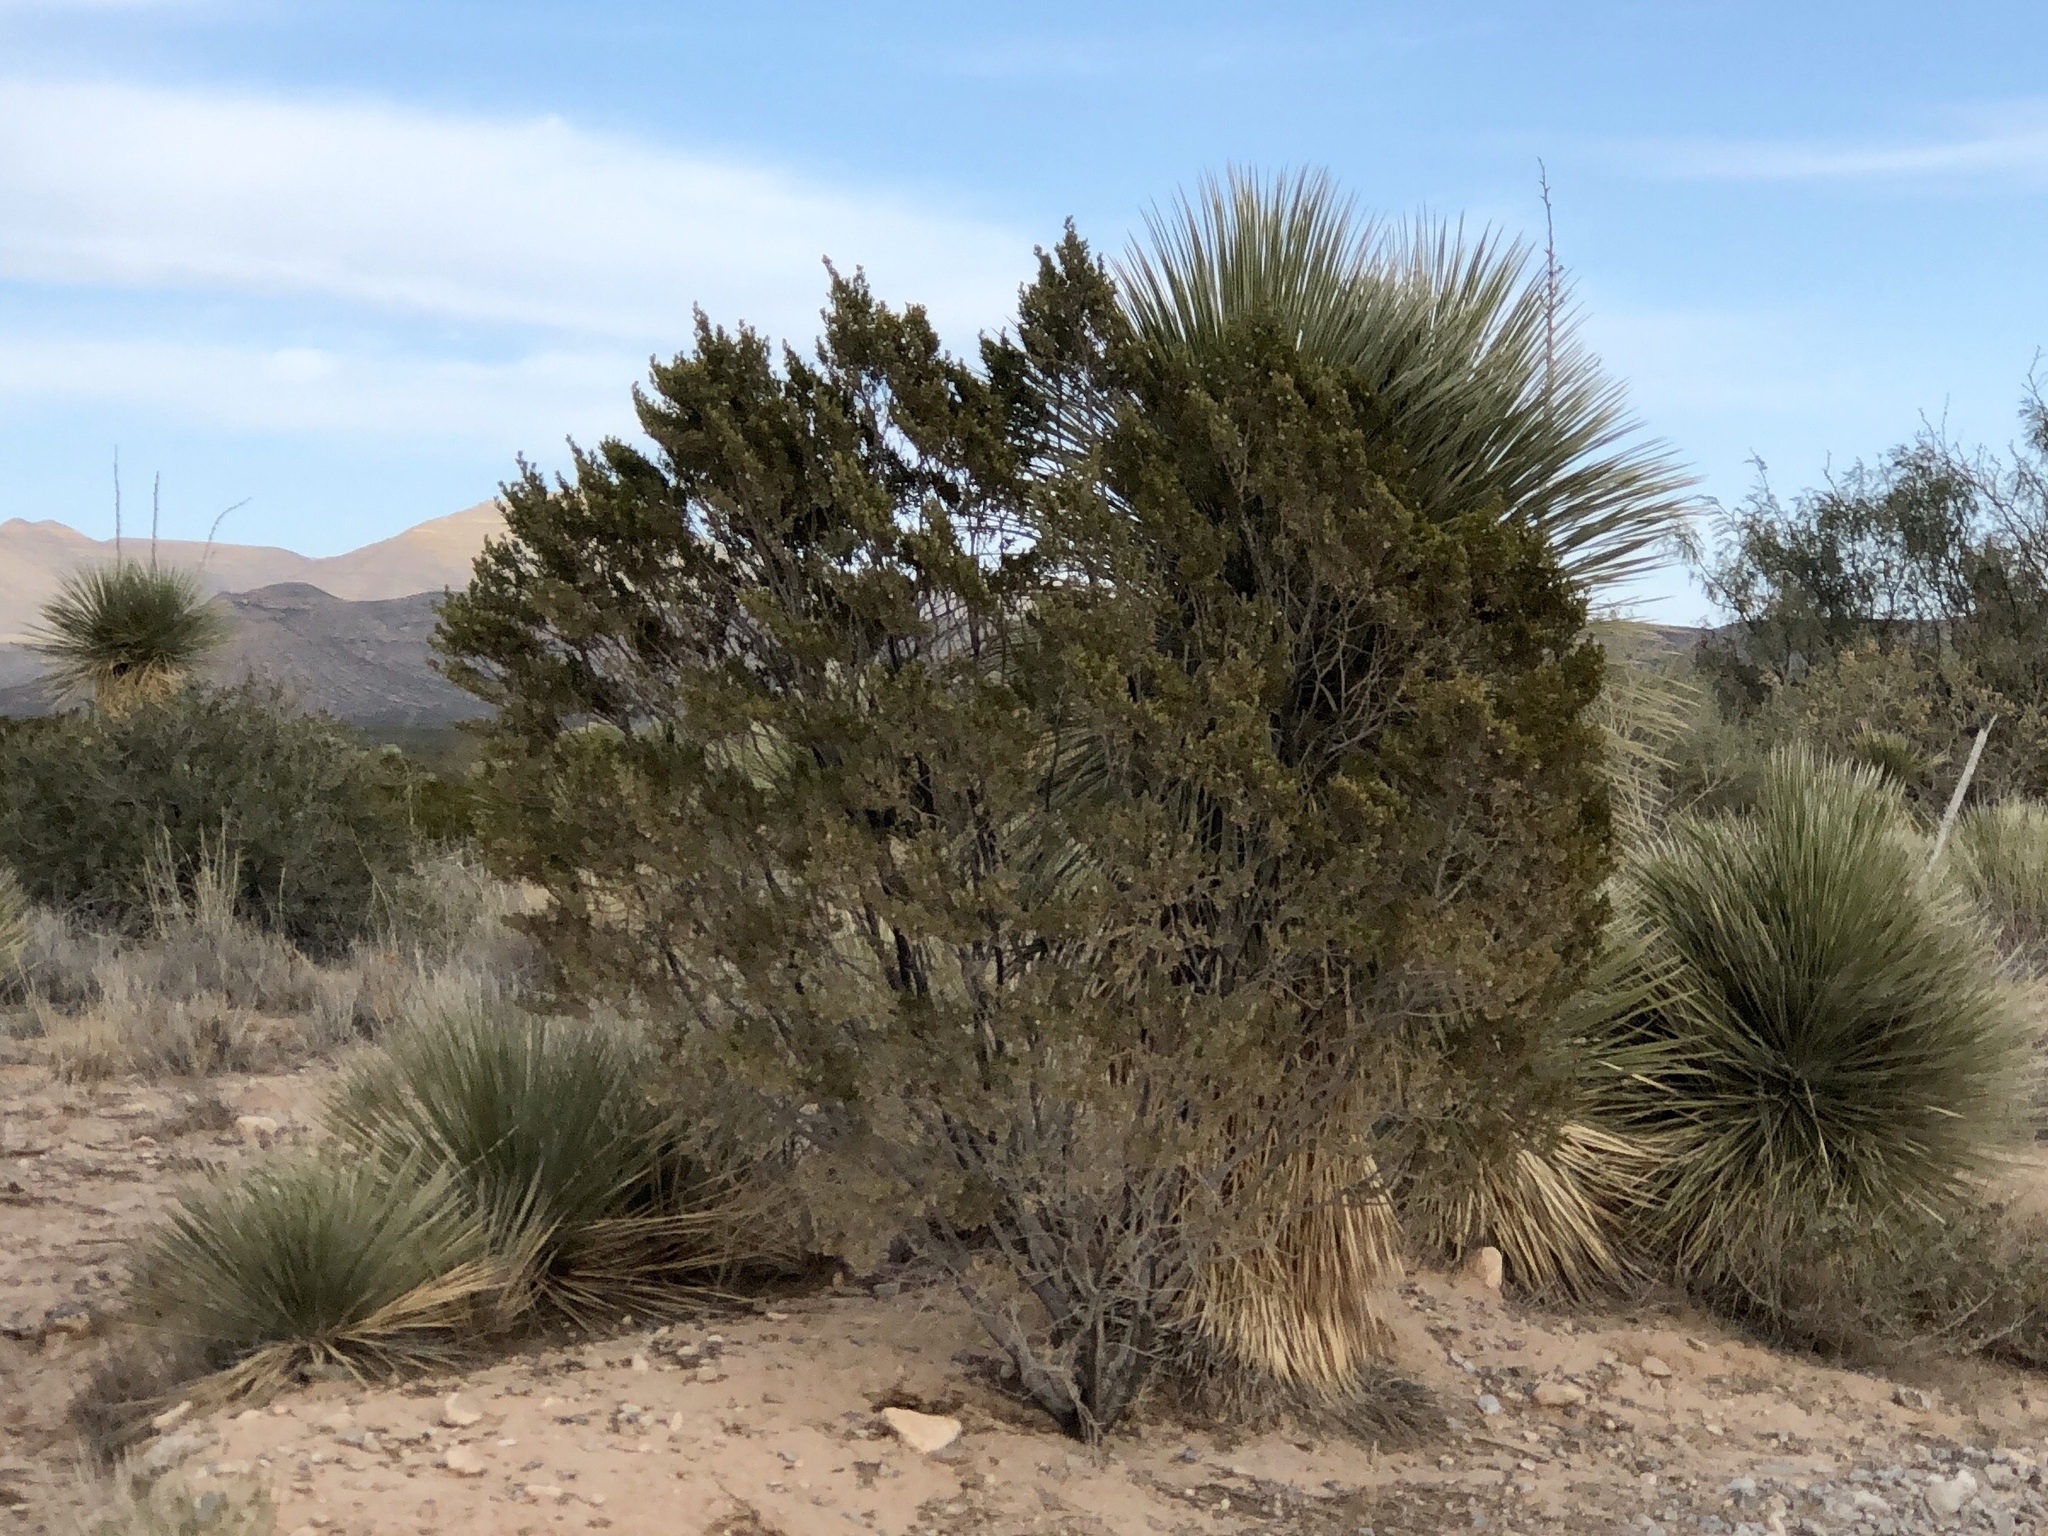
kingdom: Plantae
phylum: Tracheophyta
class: Magnoliopsida
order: Zygophyllales
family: Zygophyllaceae
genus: Larrea
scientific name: Larrea tridentata
